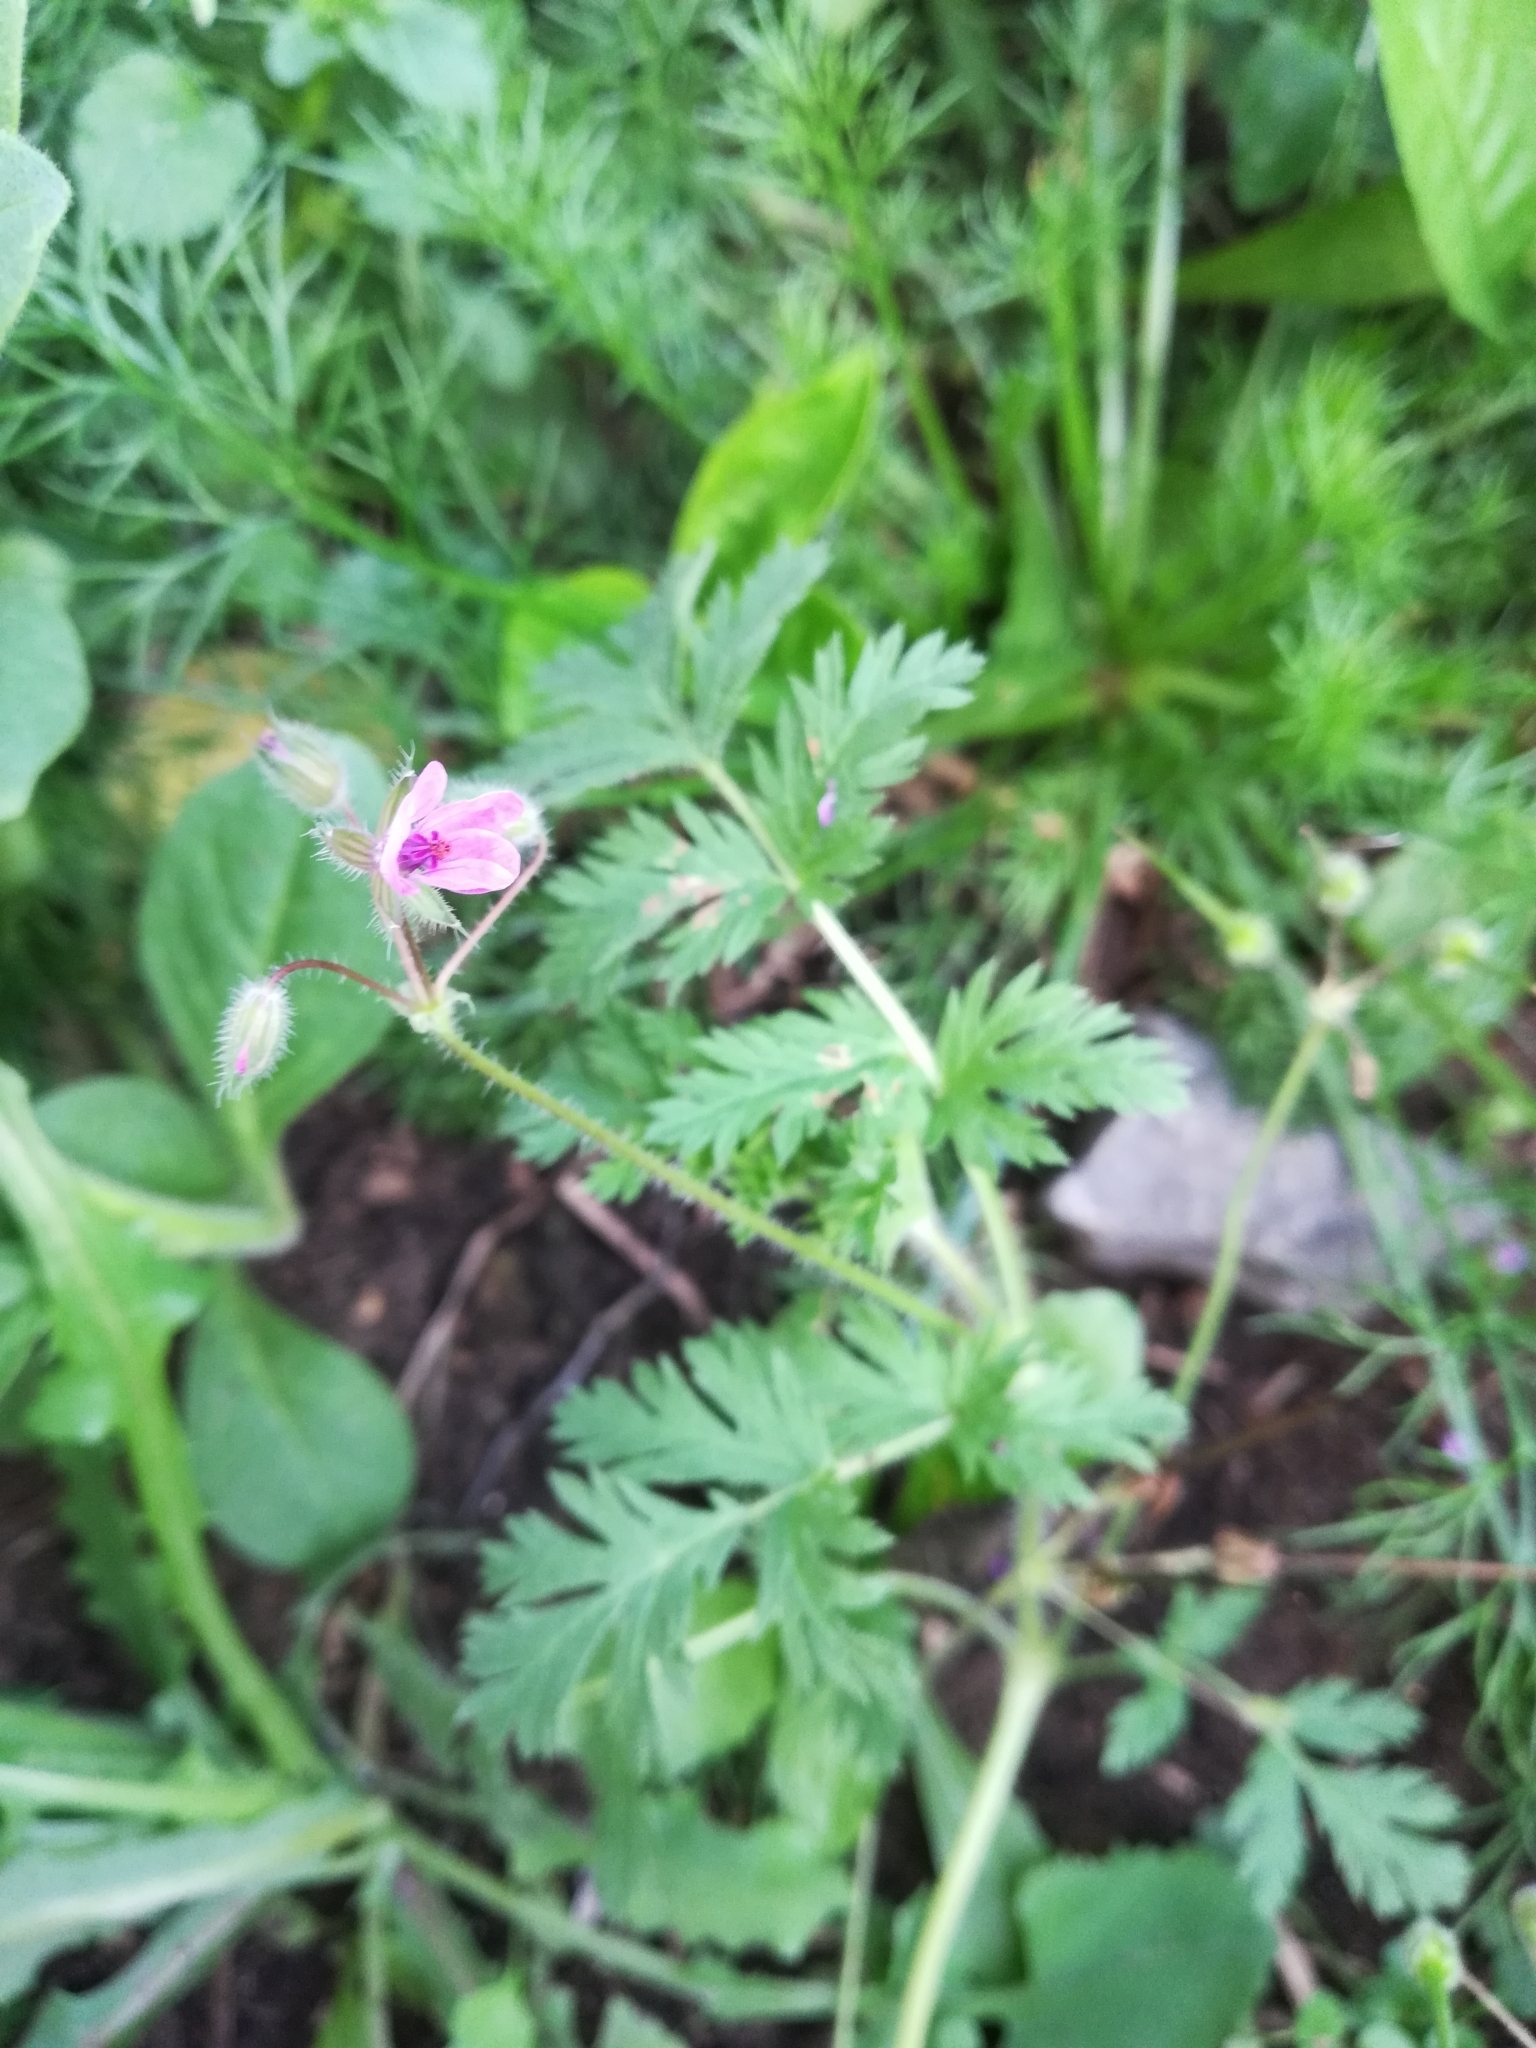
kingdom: Plantae
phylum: Tracheophyta
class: Magnoliopsida
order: Geraniales
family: Geraniaceae
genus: Erodium
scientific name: Erodium cicutarium
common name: Common stork's-bill
